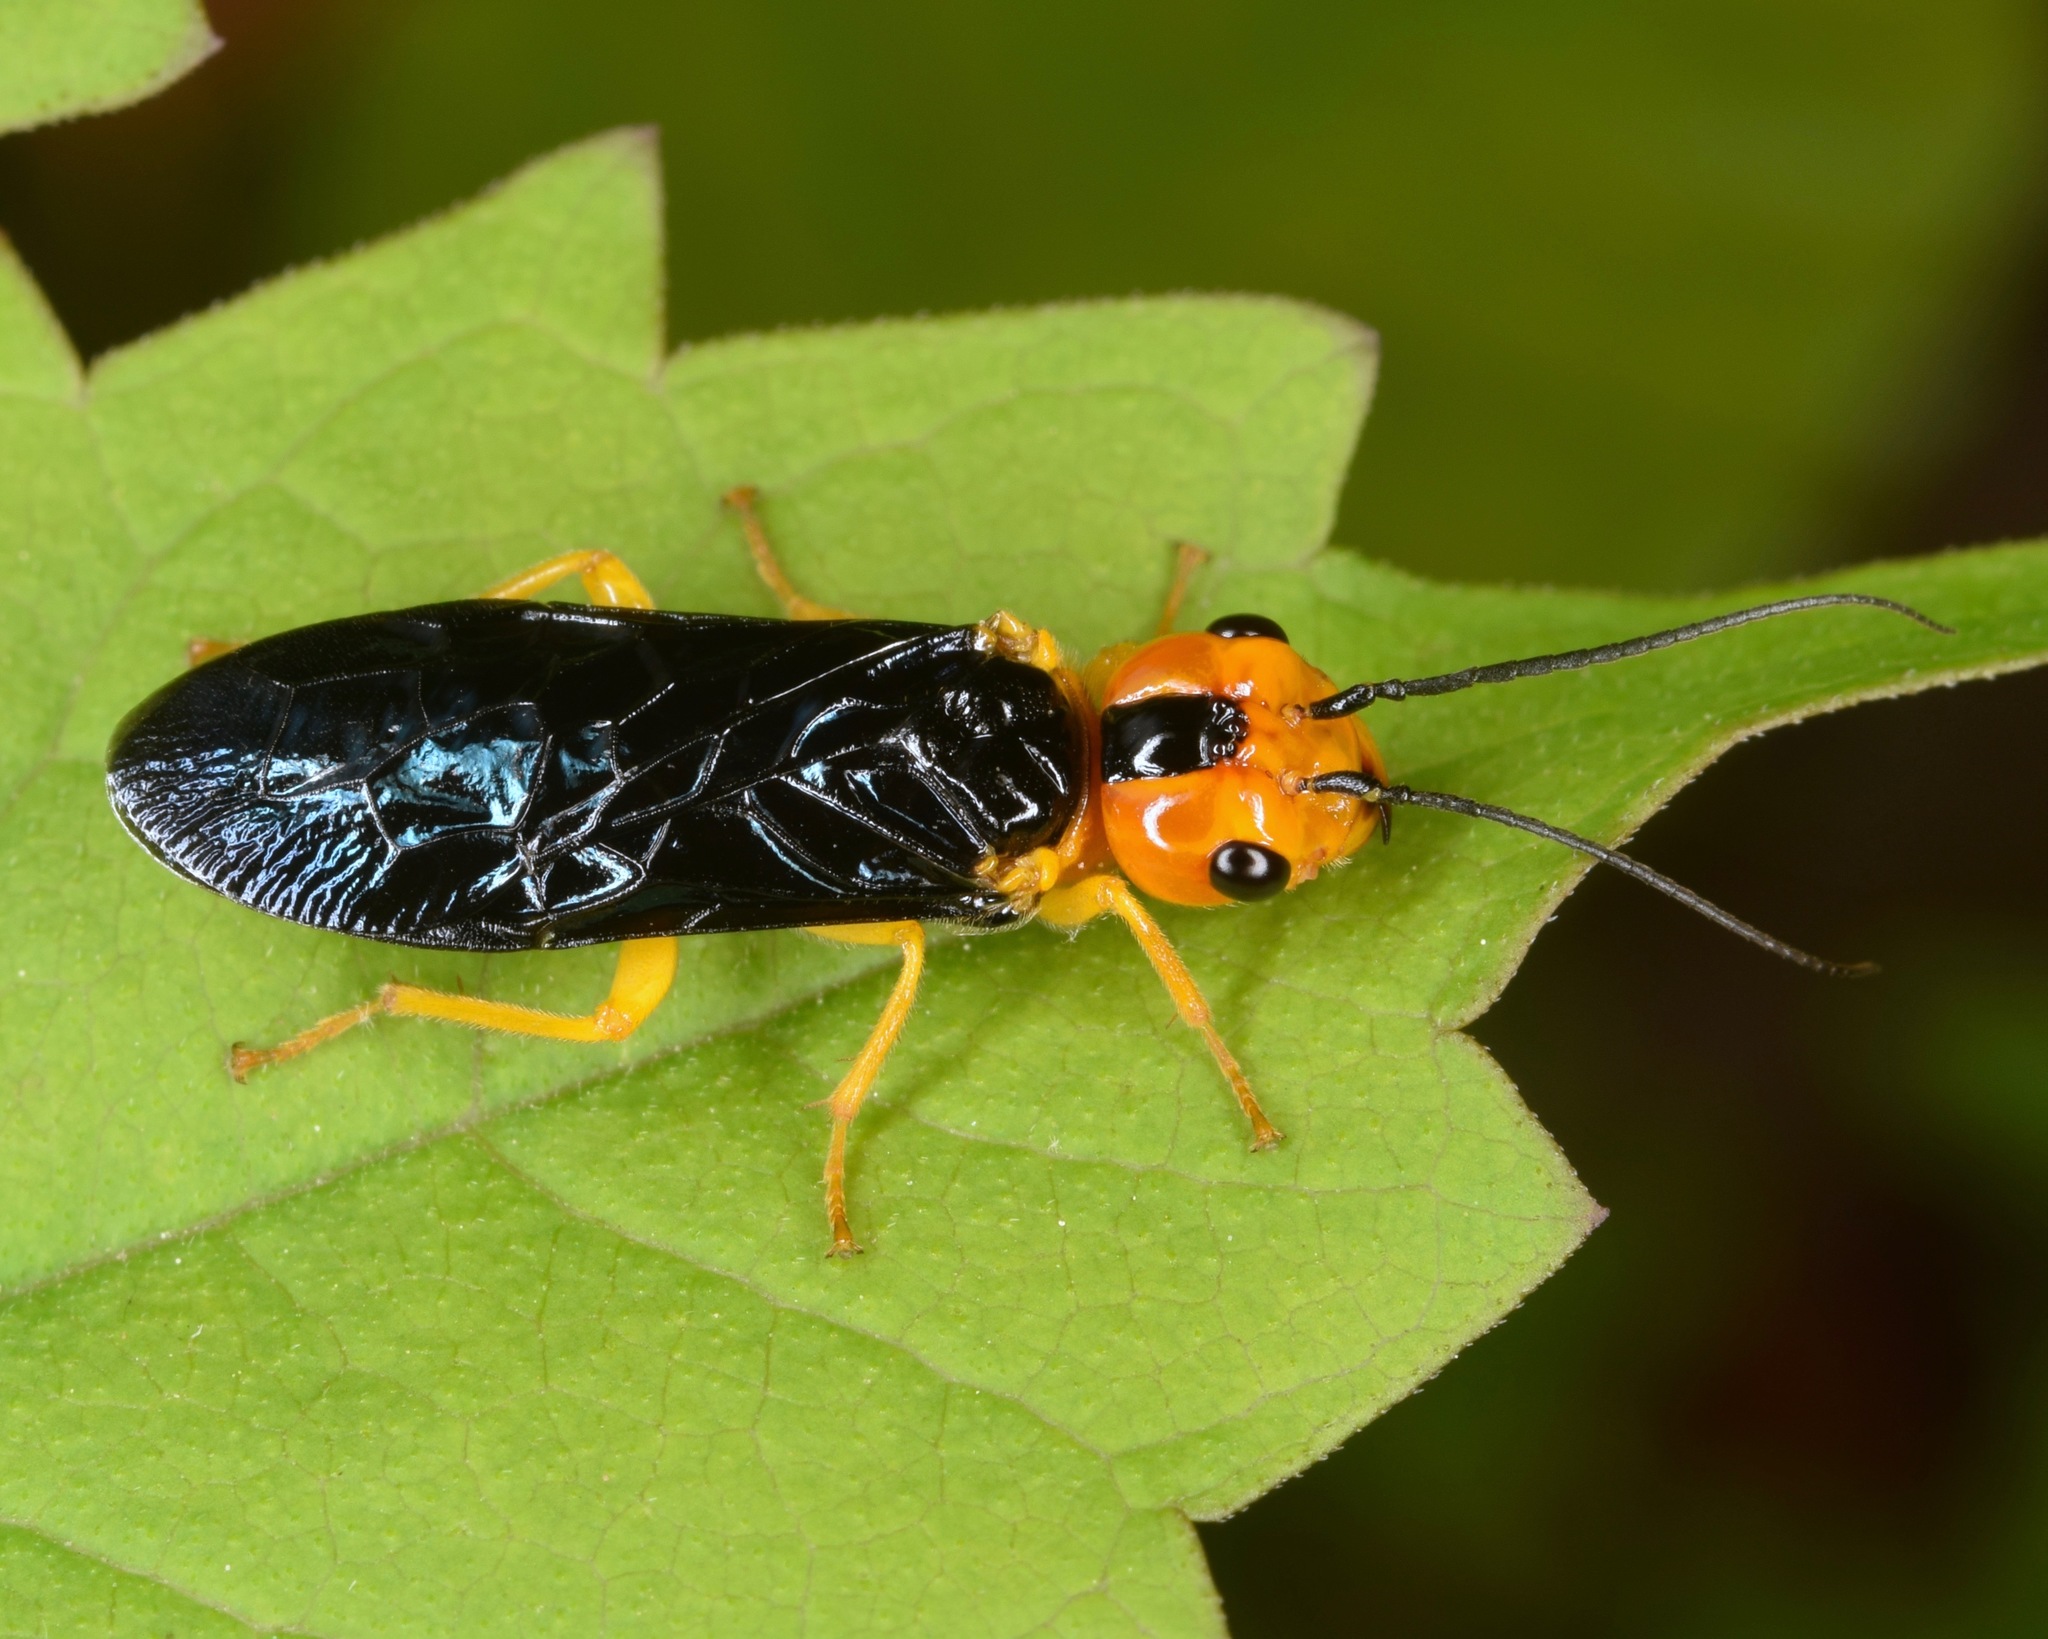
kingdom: Animalia
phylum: Arthropoda
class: Insecta
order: Hymenoptera
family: Pamphiliidae
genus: Onycholyda
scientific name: Onycholyda amplecta
